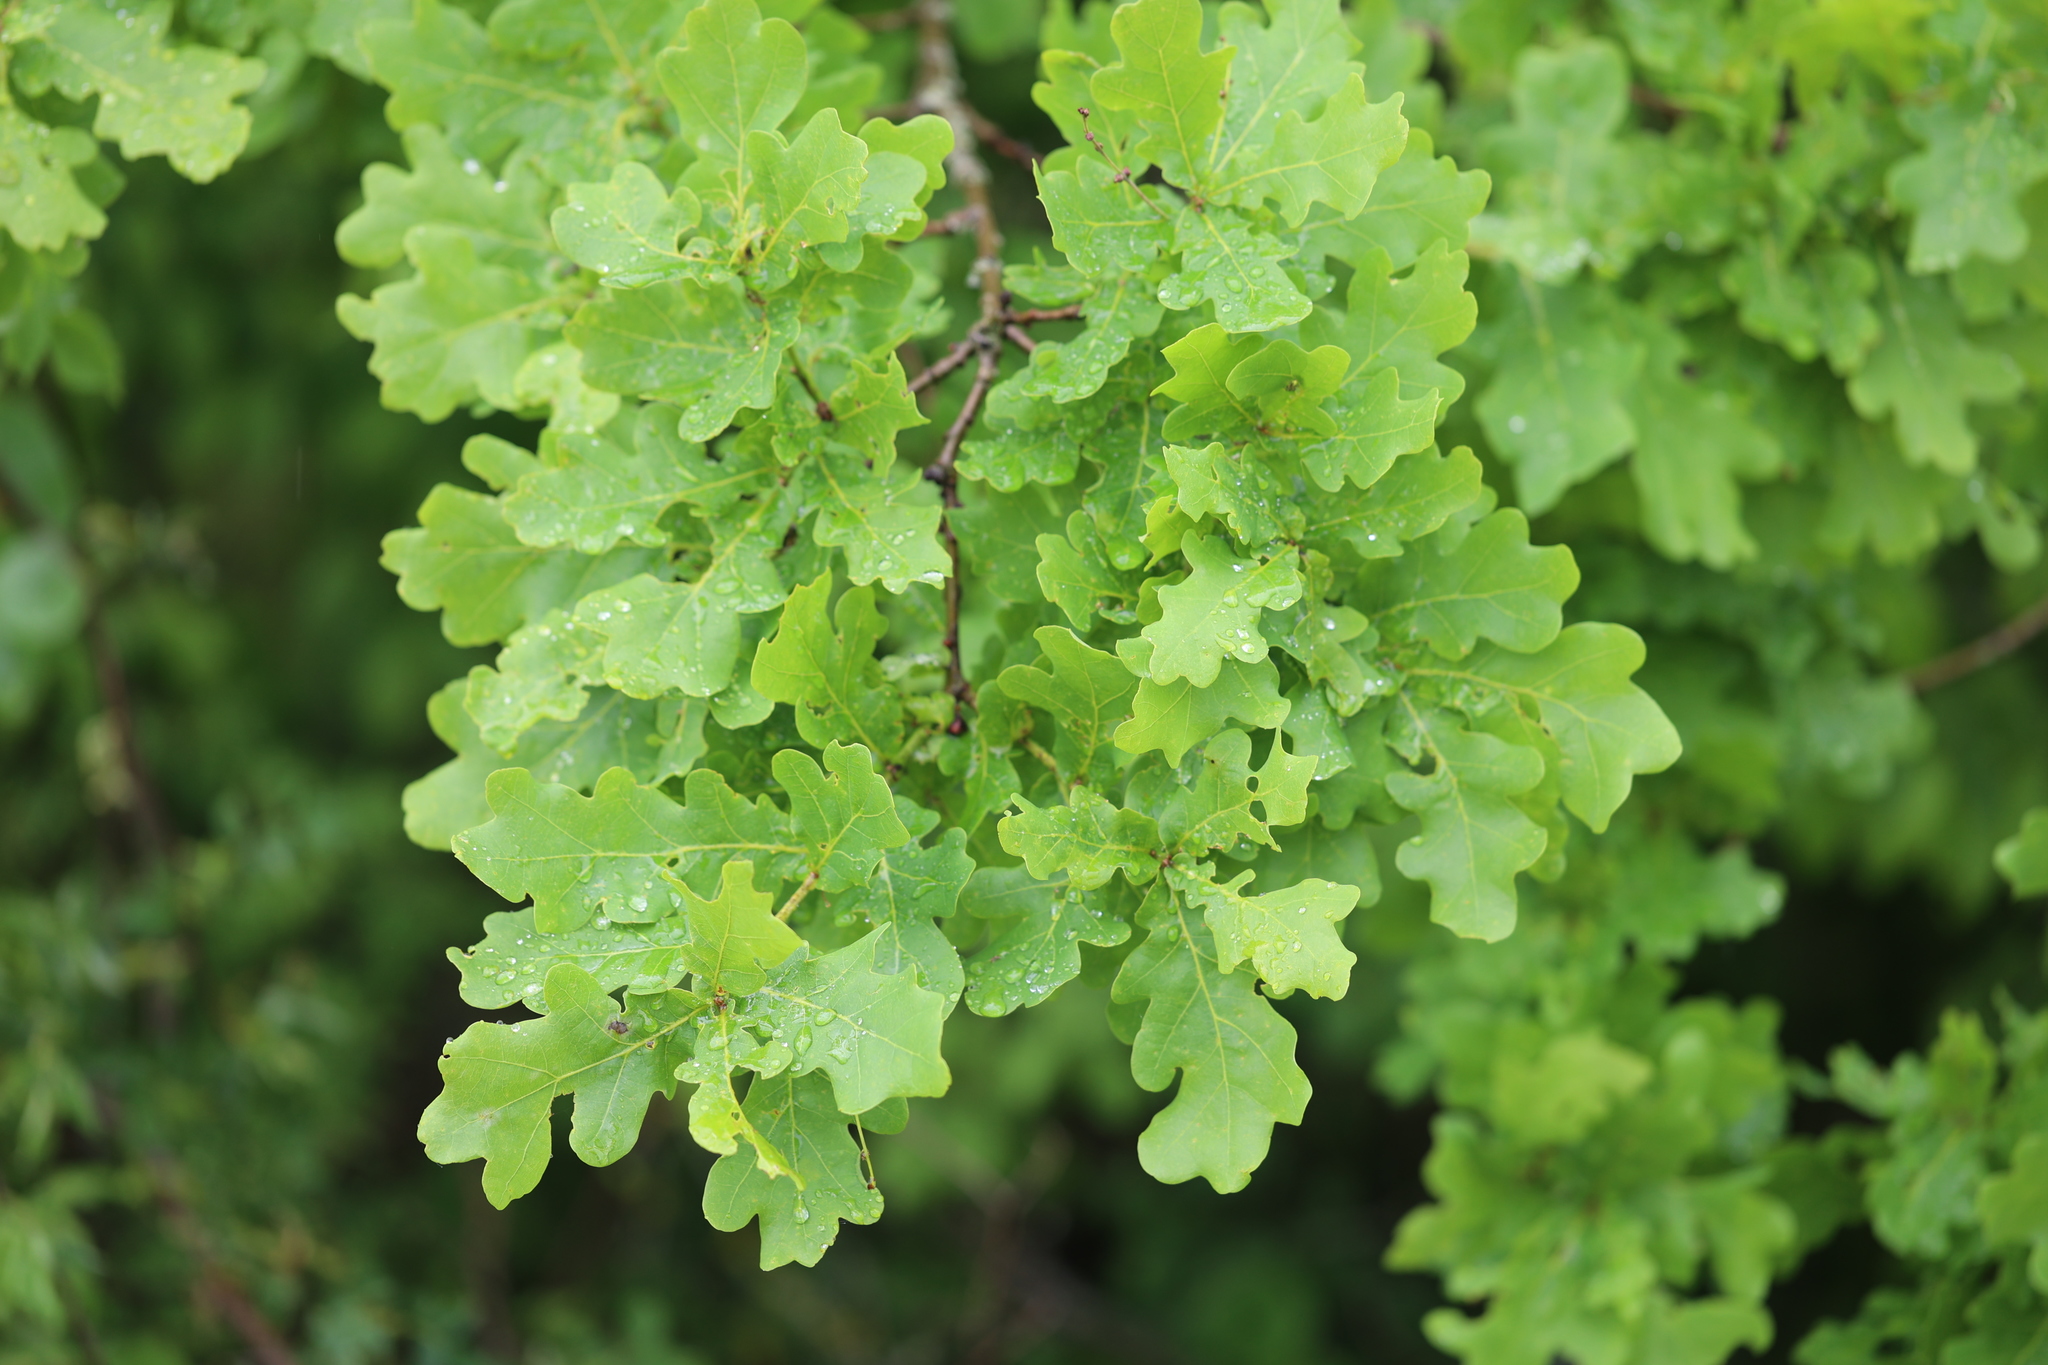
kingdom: Plantae
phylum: Tracheophyta
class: Magnoliopsida
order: Fagales
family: Fagaceae
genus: Quercus
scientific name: Quercus robur
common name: Pedunculate oak
